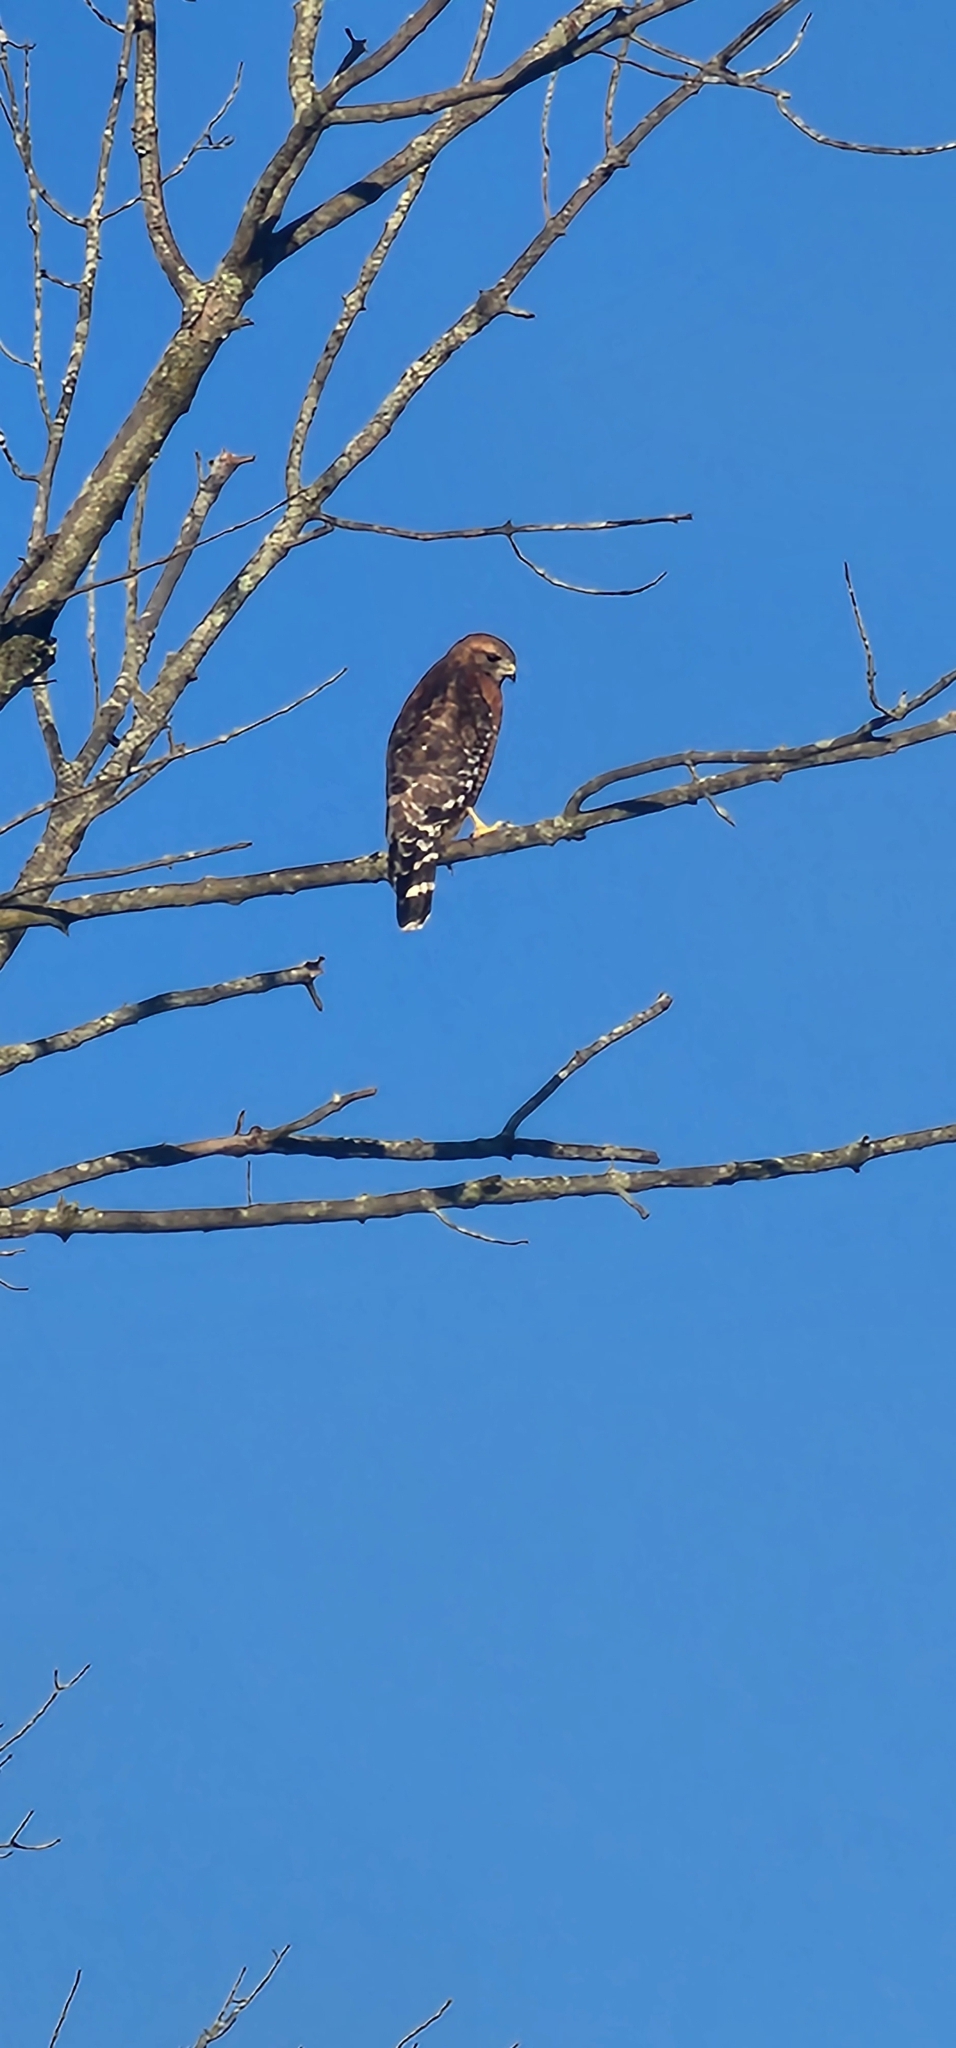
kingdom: Animalia
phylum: Chordata
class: Aves
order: Accipitriformes
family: Accipitridae
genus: Buteo
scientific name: Buteo lineatus
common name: Red-shouldered hawk
